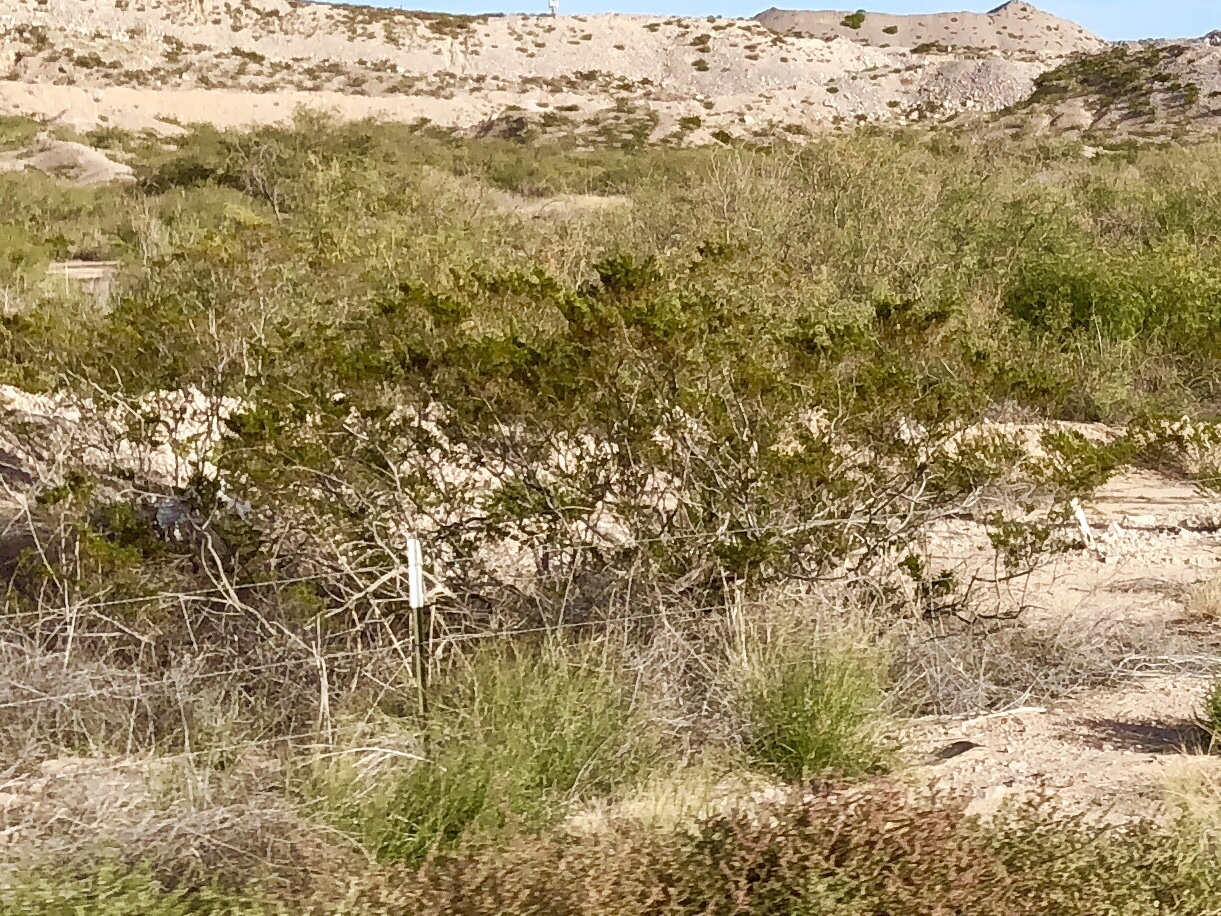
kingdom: Plantae
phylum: Tracheophyta
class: Magnoliopsida
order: Zygophyllales
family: Zygophyllaceae
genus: Larrea
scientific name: Larrea tridentata
